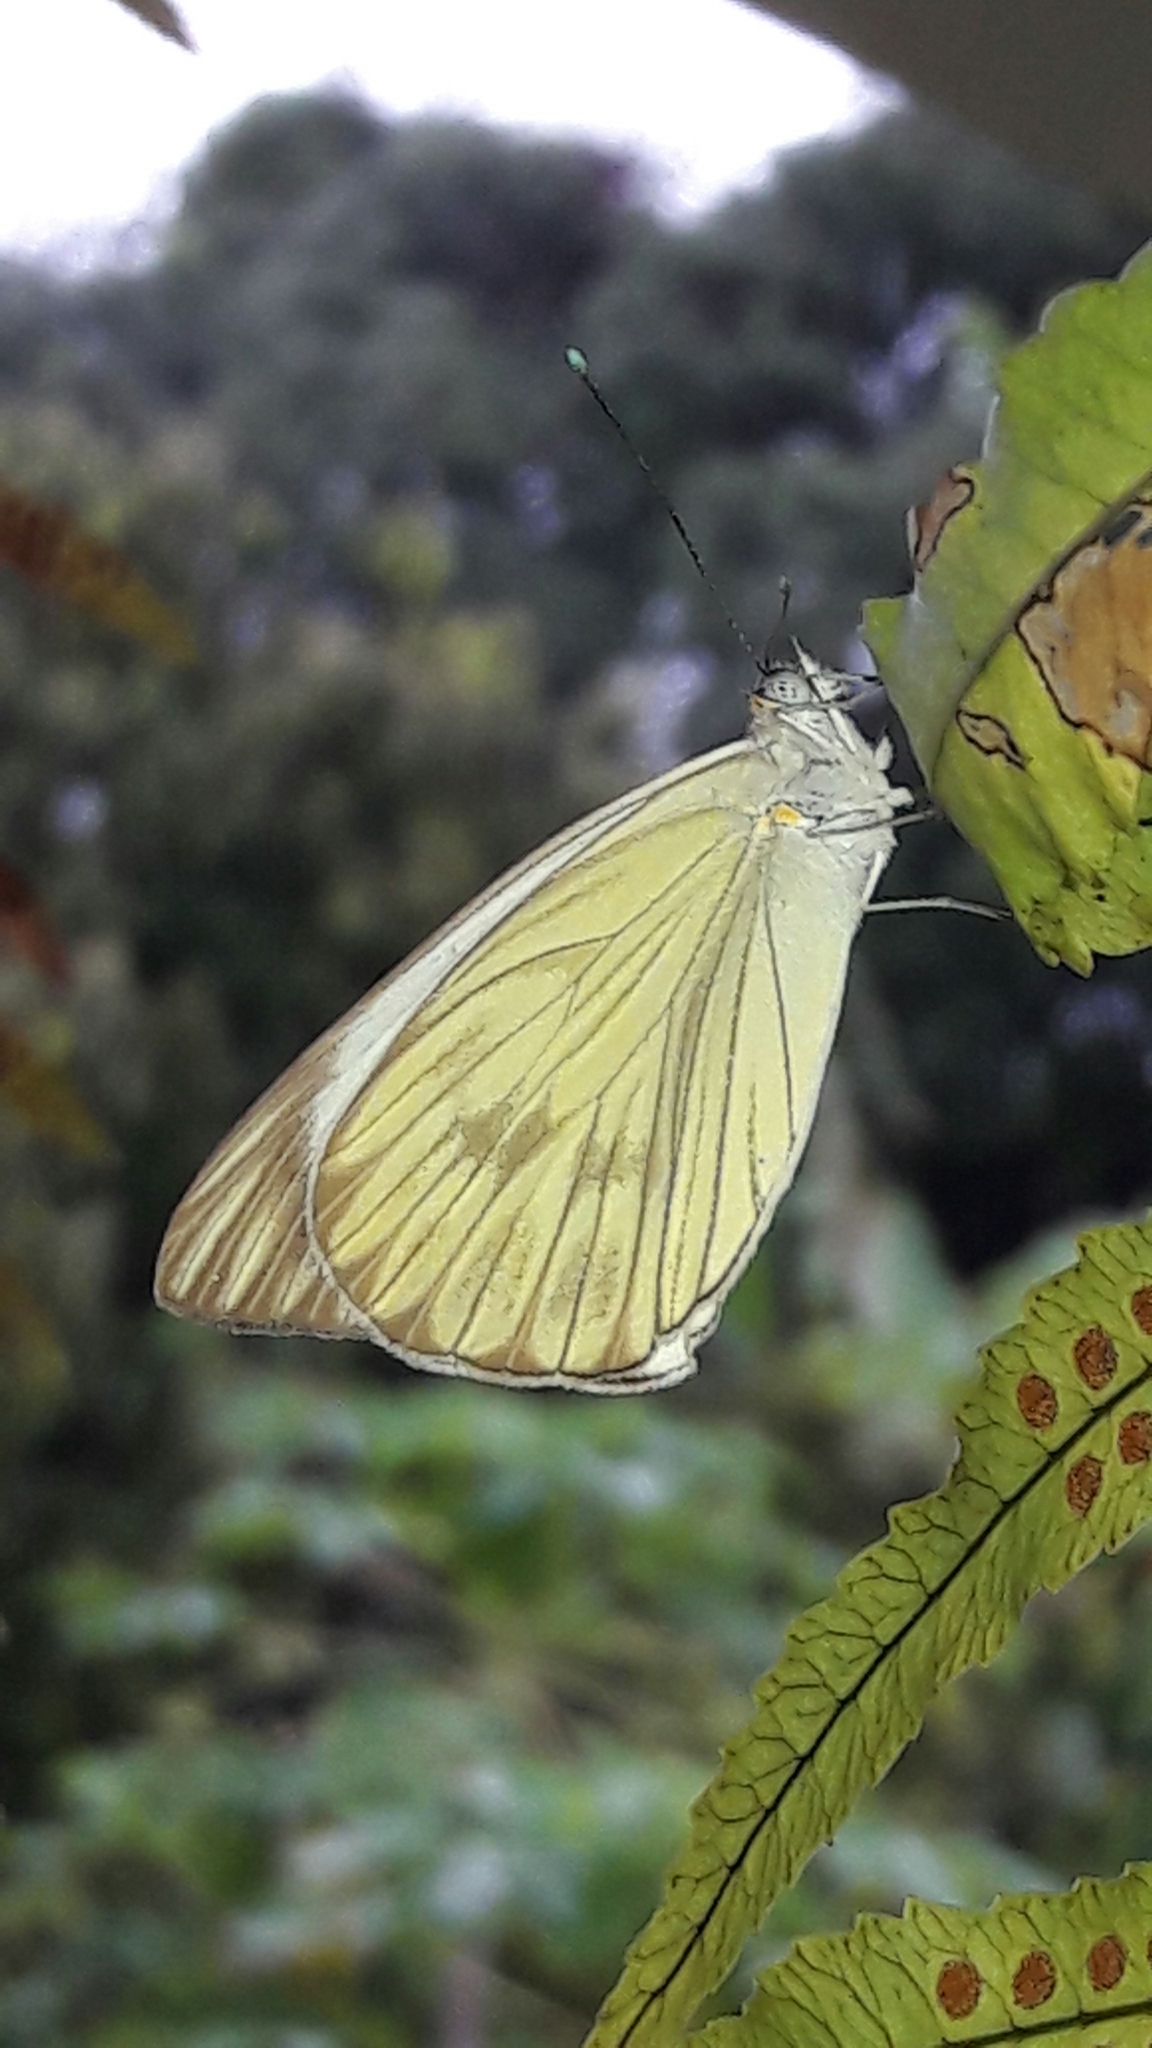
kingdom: Animalia
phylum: Arthropoda
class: Insecta
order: Lepidoptera
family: Pieridae
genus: Ascia
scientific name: Ascia monuste
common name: Great southern white
